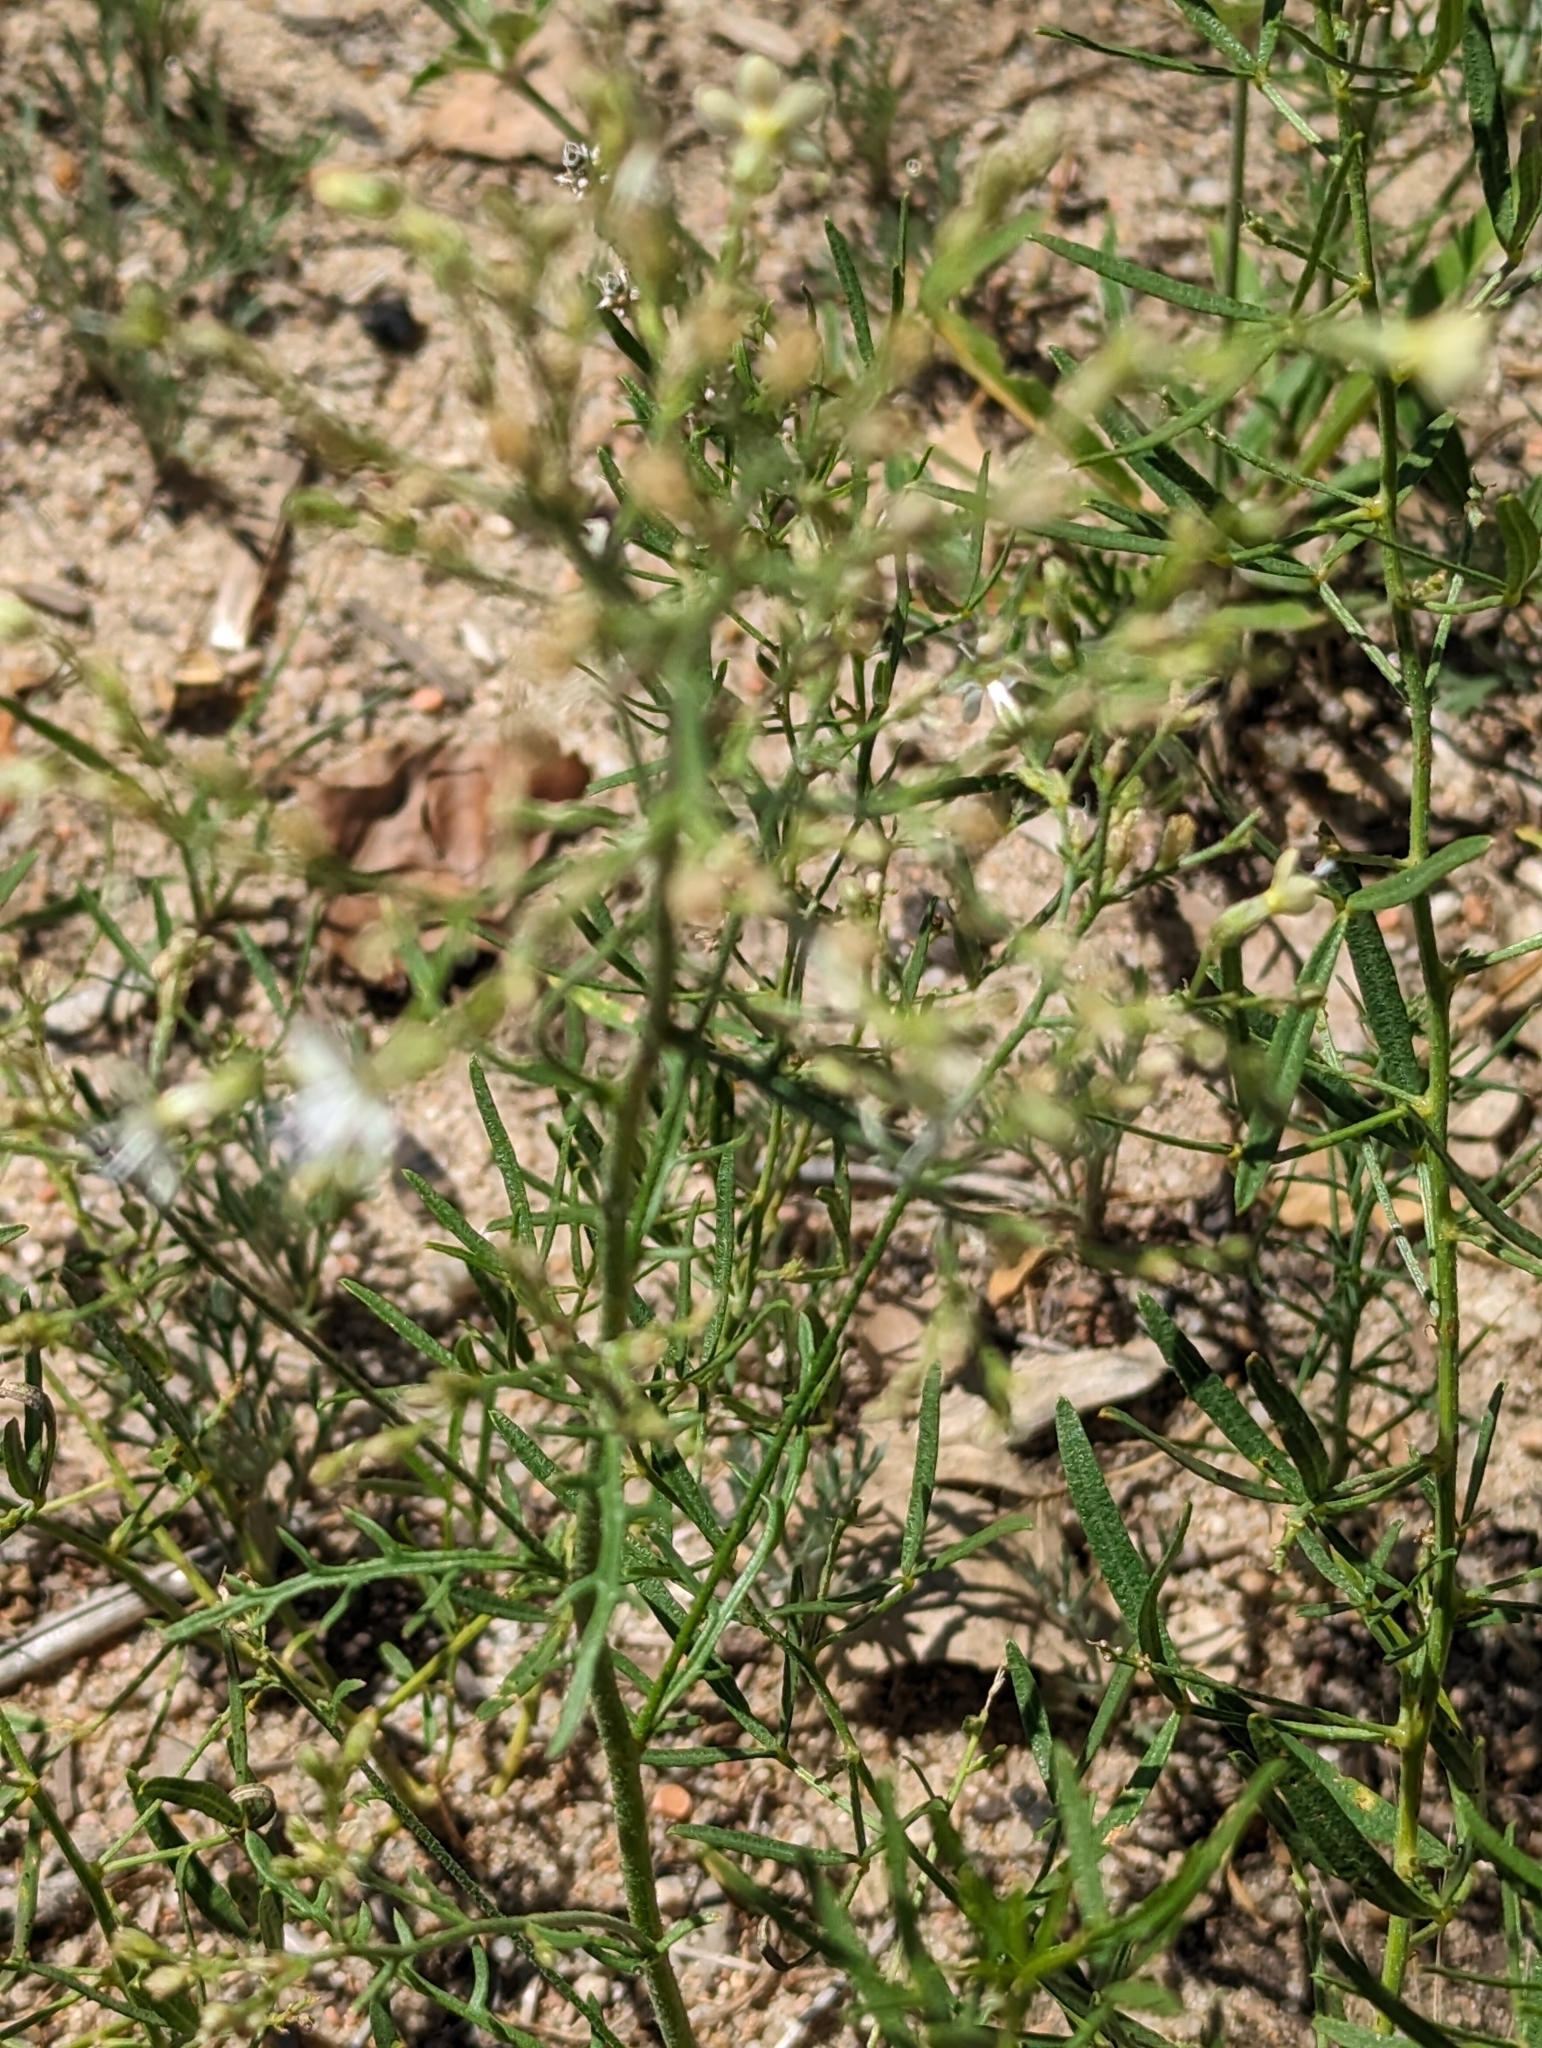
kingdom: Plantae
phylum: Tracheophyta
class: Magnoliopsida
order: Ericales
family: Polemoniaceae
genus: Aliciella
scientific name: Aliciella pinnatifida
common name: Sticky gilia
